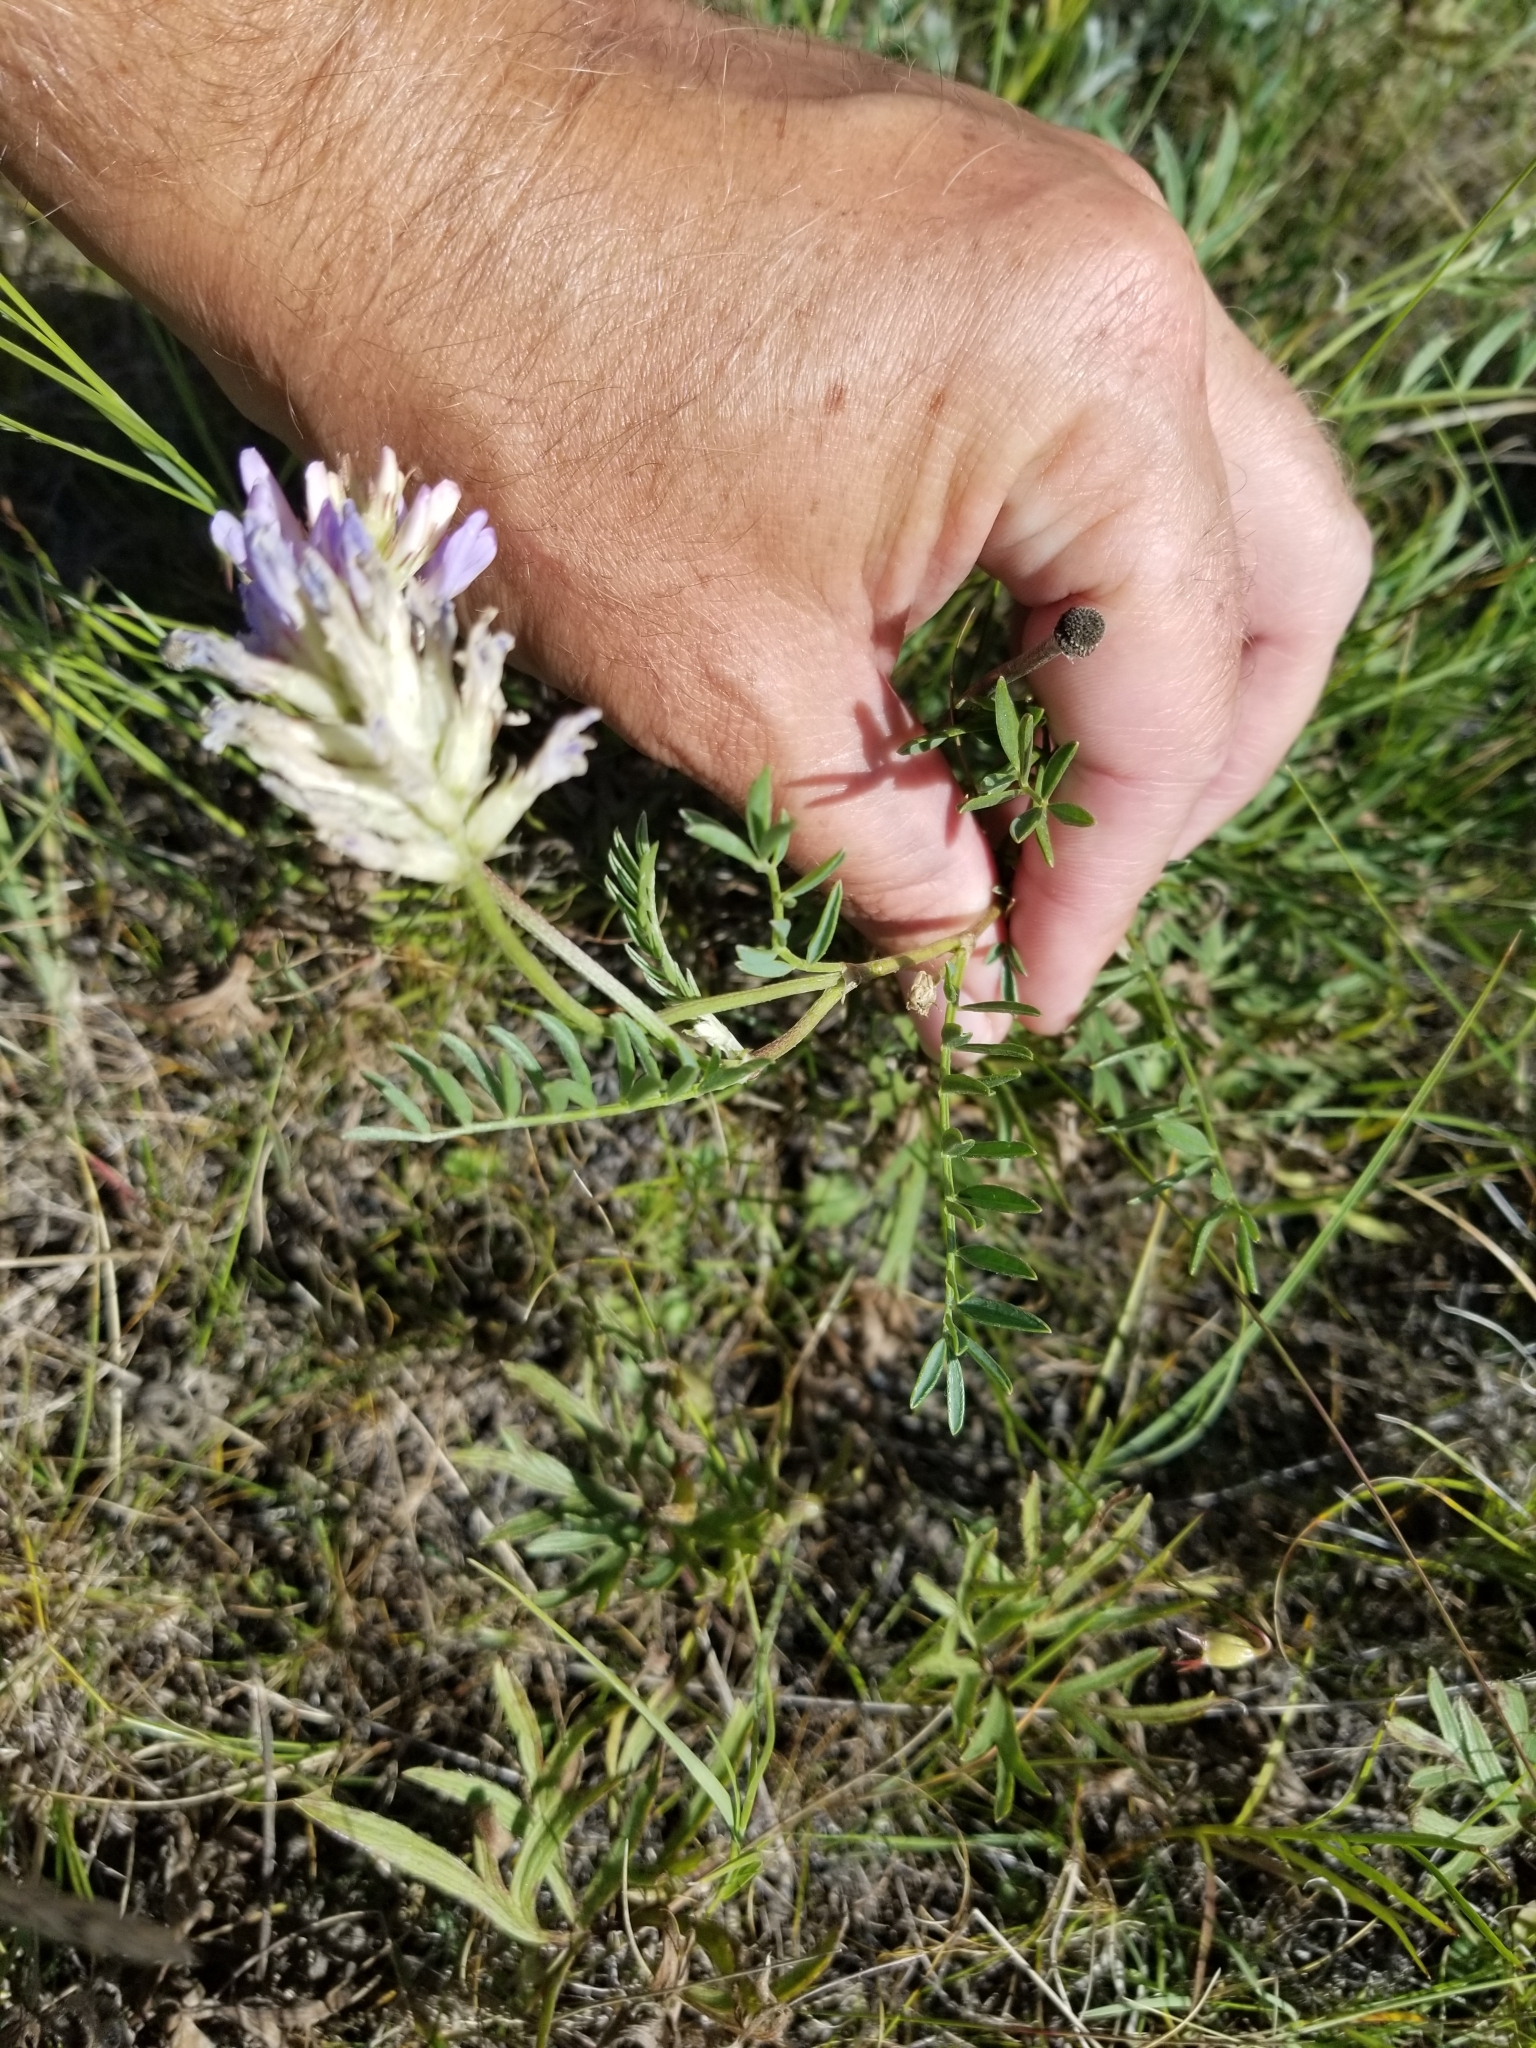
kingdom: Plantae
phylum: Tracheophyta
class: Magnoliopsida
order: Fabales
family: Fabaceae
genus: Astragalus
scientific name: Astragalus laxmannii
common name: Laxmann's milk-vetch
